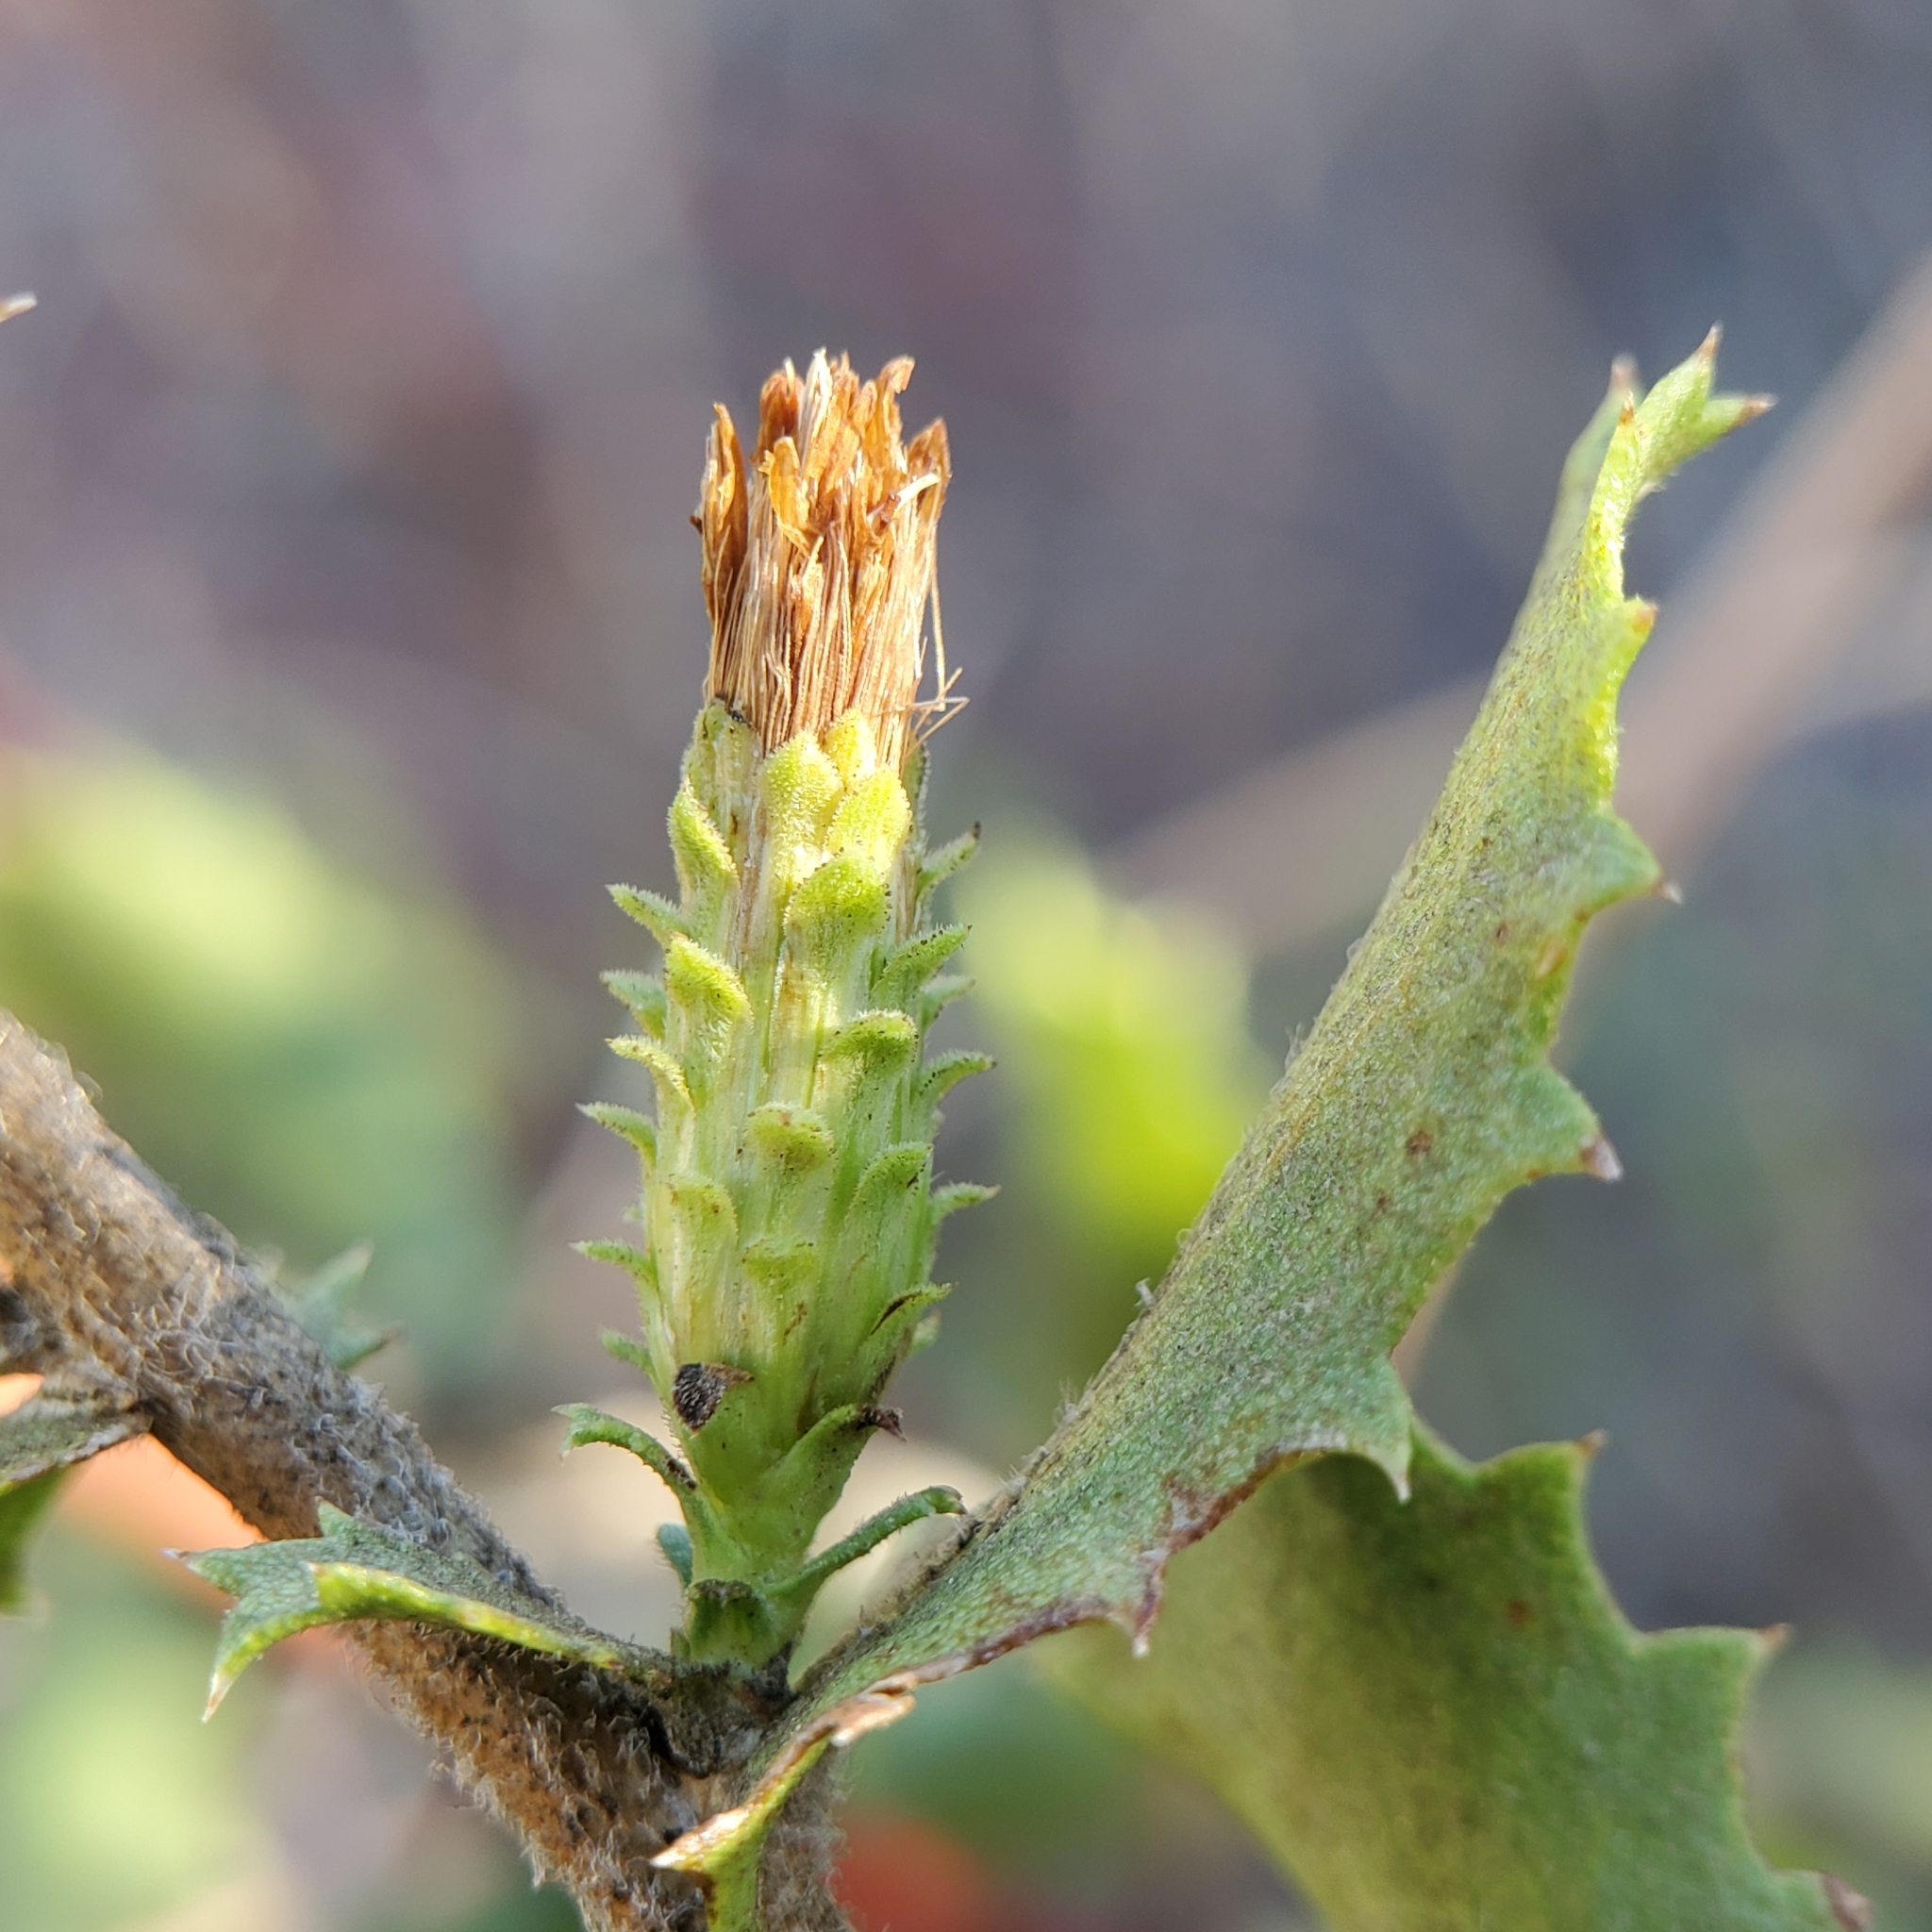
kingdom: Plantae
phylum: Tracheophyta
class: Magnoliopsida
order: Asterales
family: Asteraceae
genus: Hazardia
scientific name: Hazardia squarrosa
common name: Saw-tooth goldenbush
